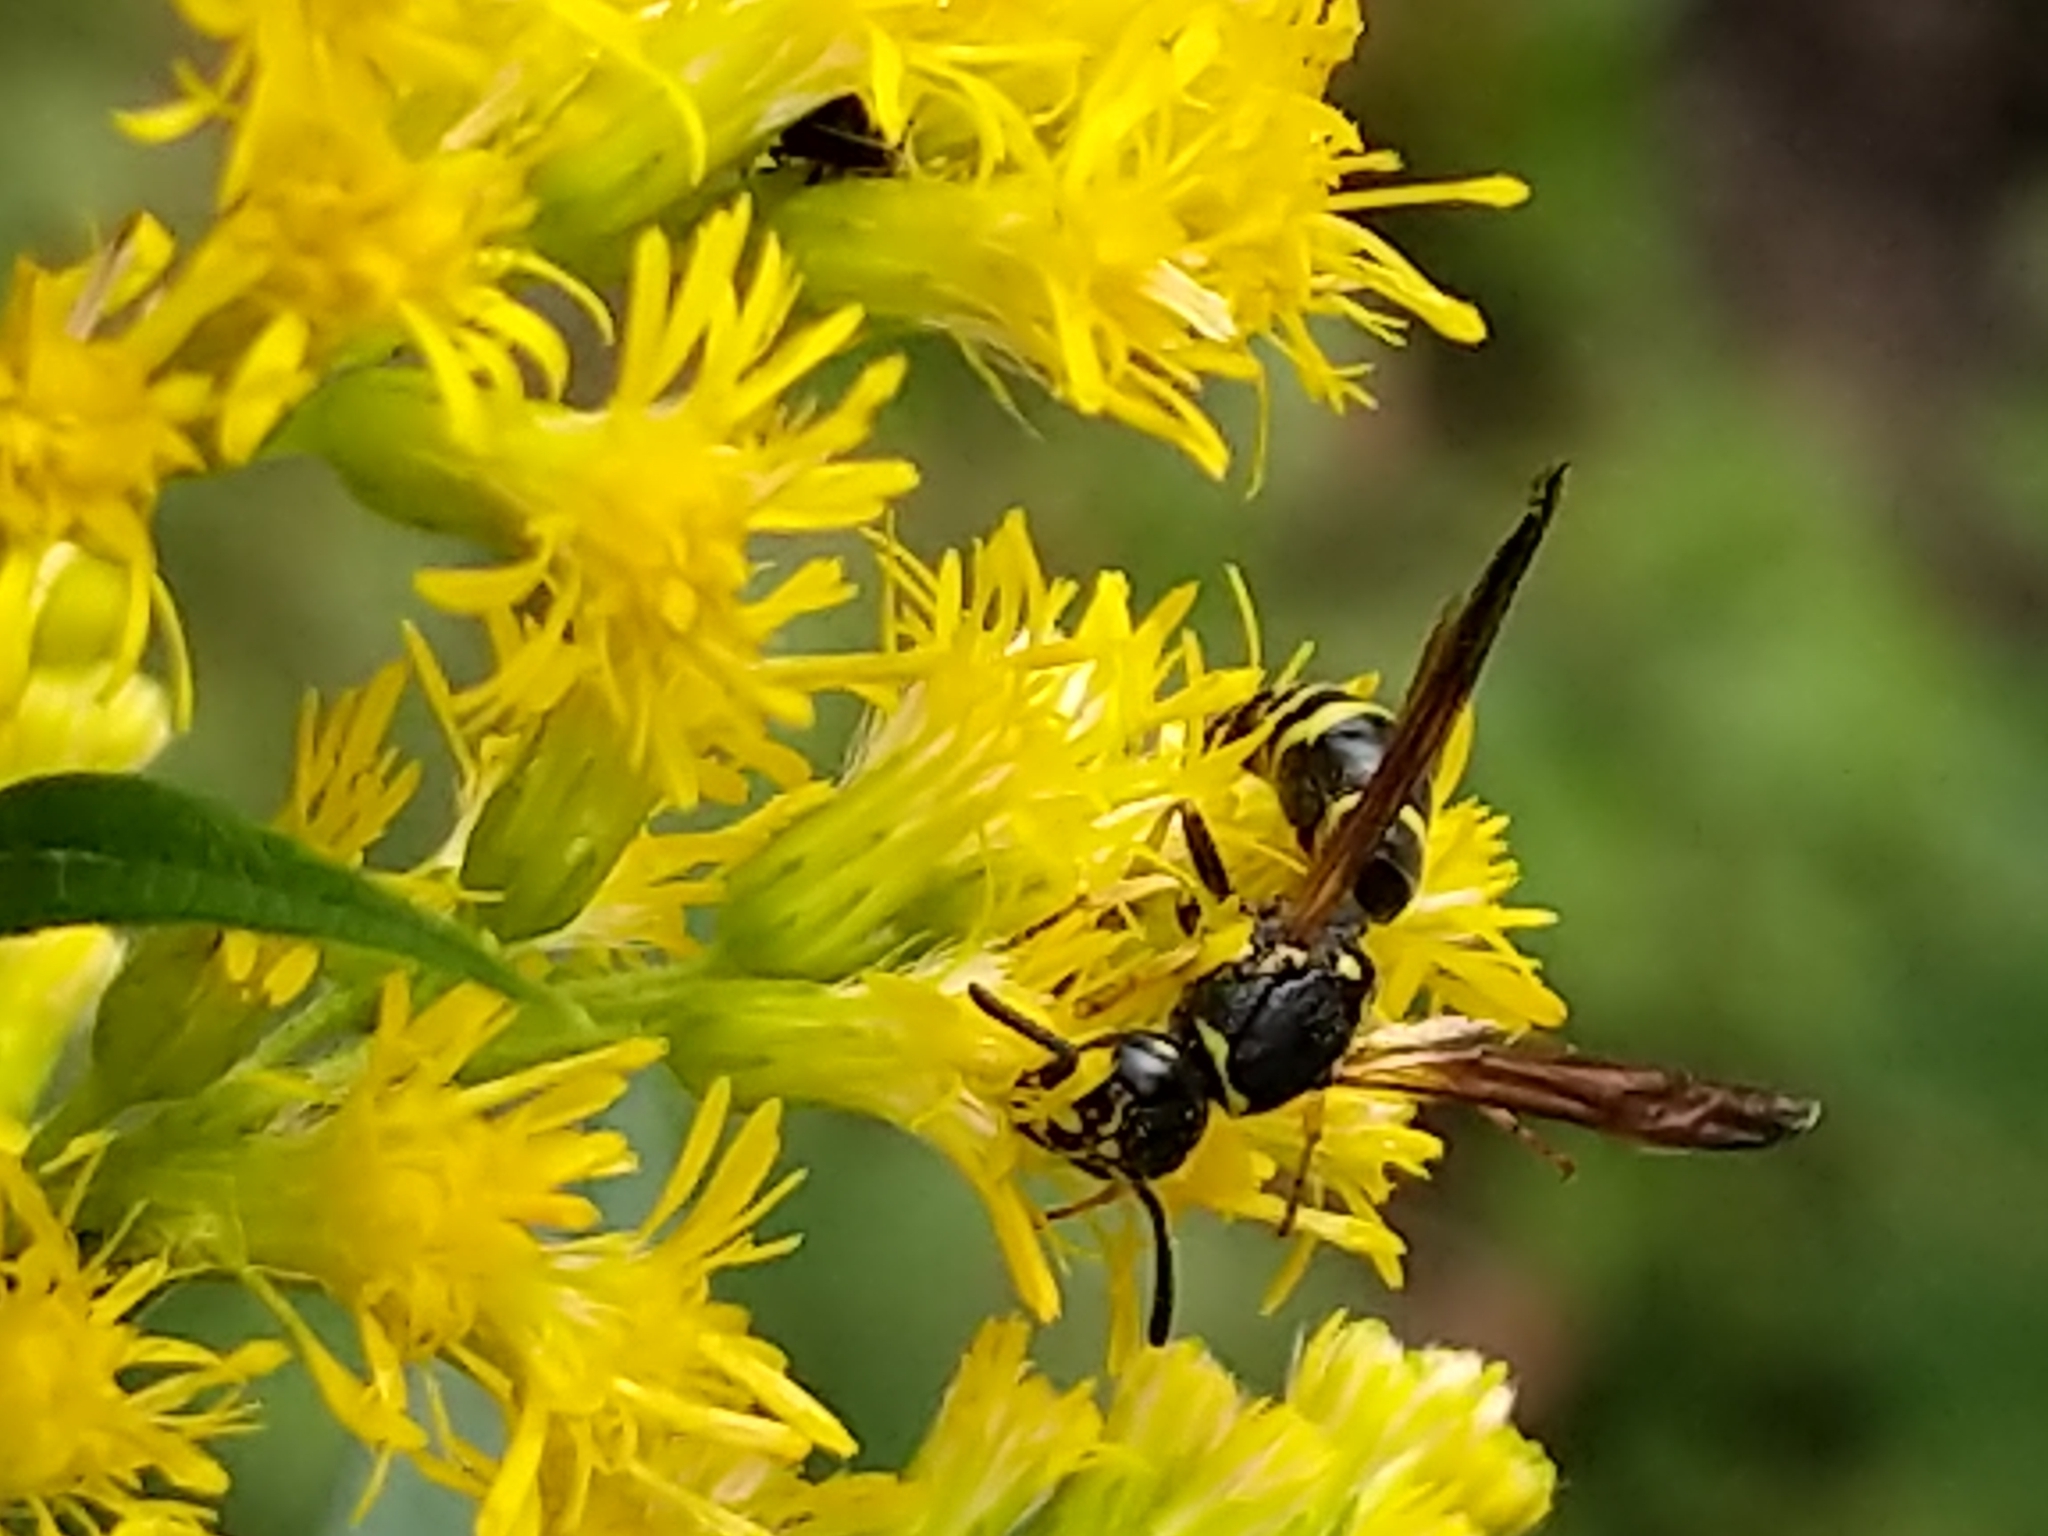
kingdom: Animalia
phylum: Arthropoda
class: Insecta
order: Hymenoptera
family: Vespidae
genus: Ancistrocerus
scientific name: Ancistrocerus
